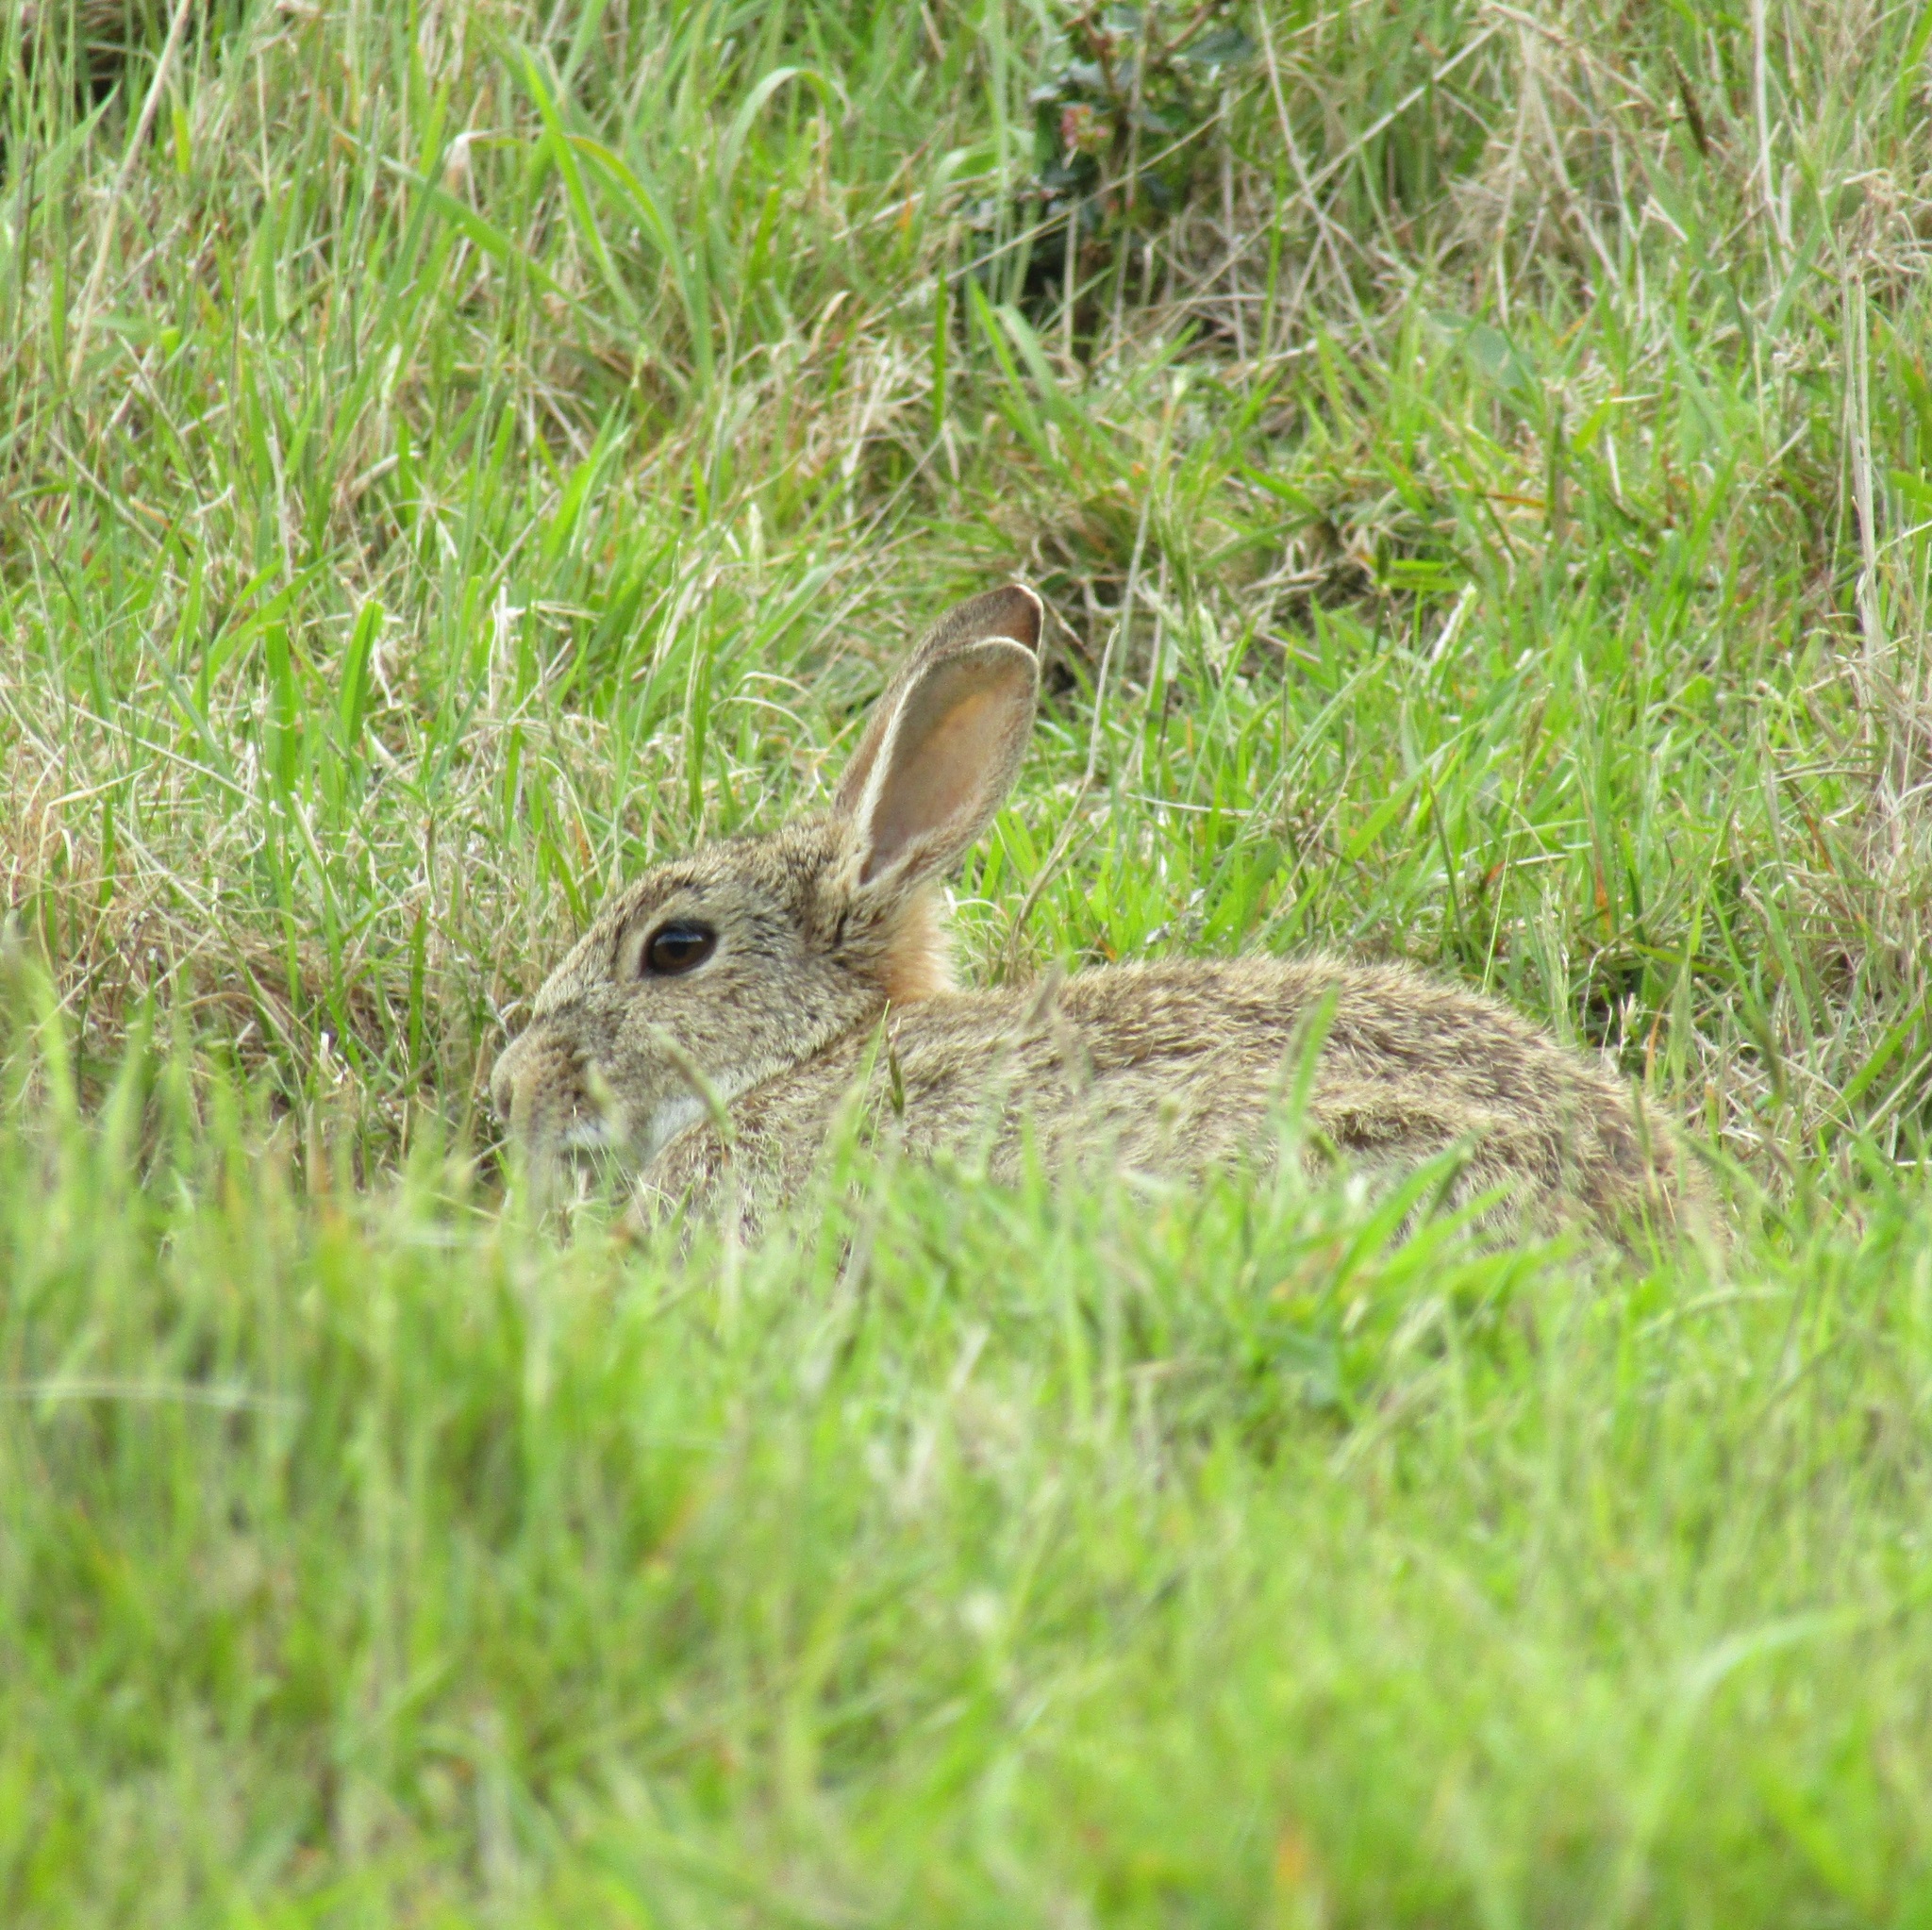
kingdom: Animalia
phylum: Chordata
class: Mammalia
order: Lagomorpha
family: Leporidae
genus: Oryctolagus
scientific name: Oryctolagus cuniculus
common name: European rabbit
